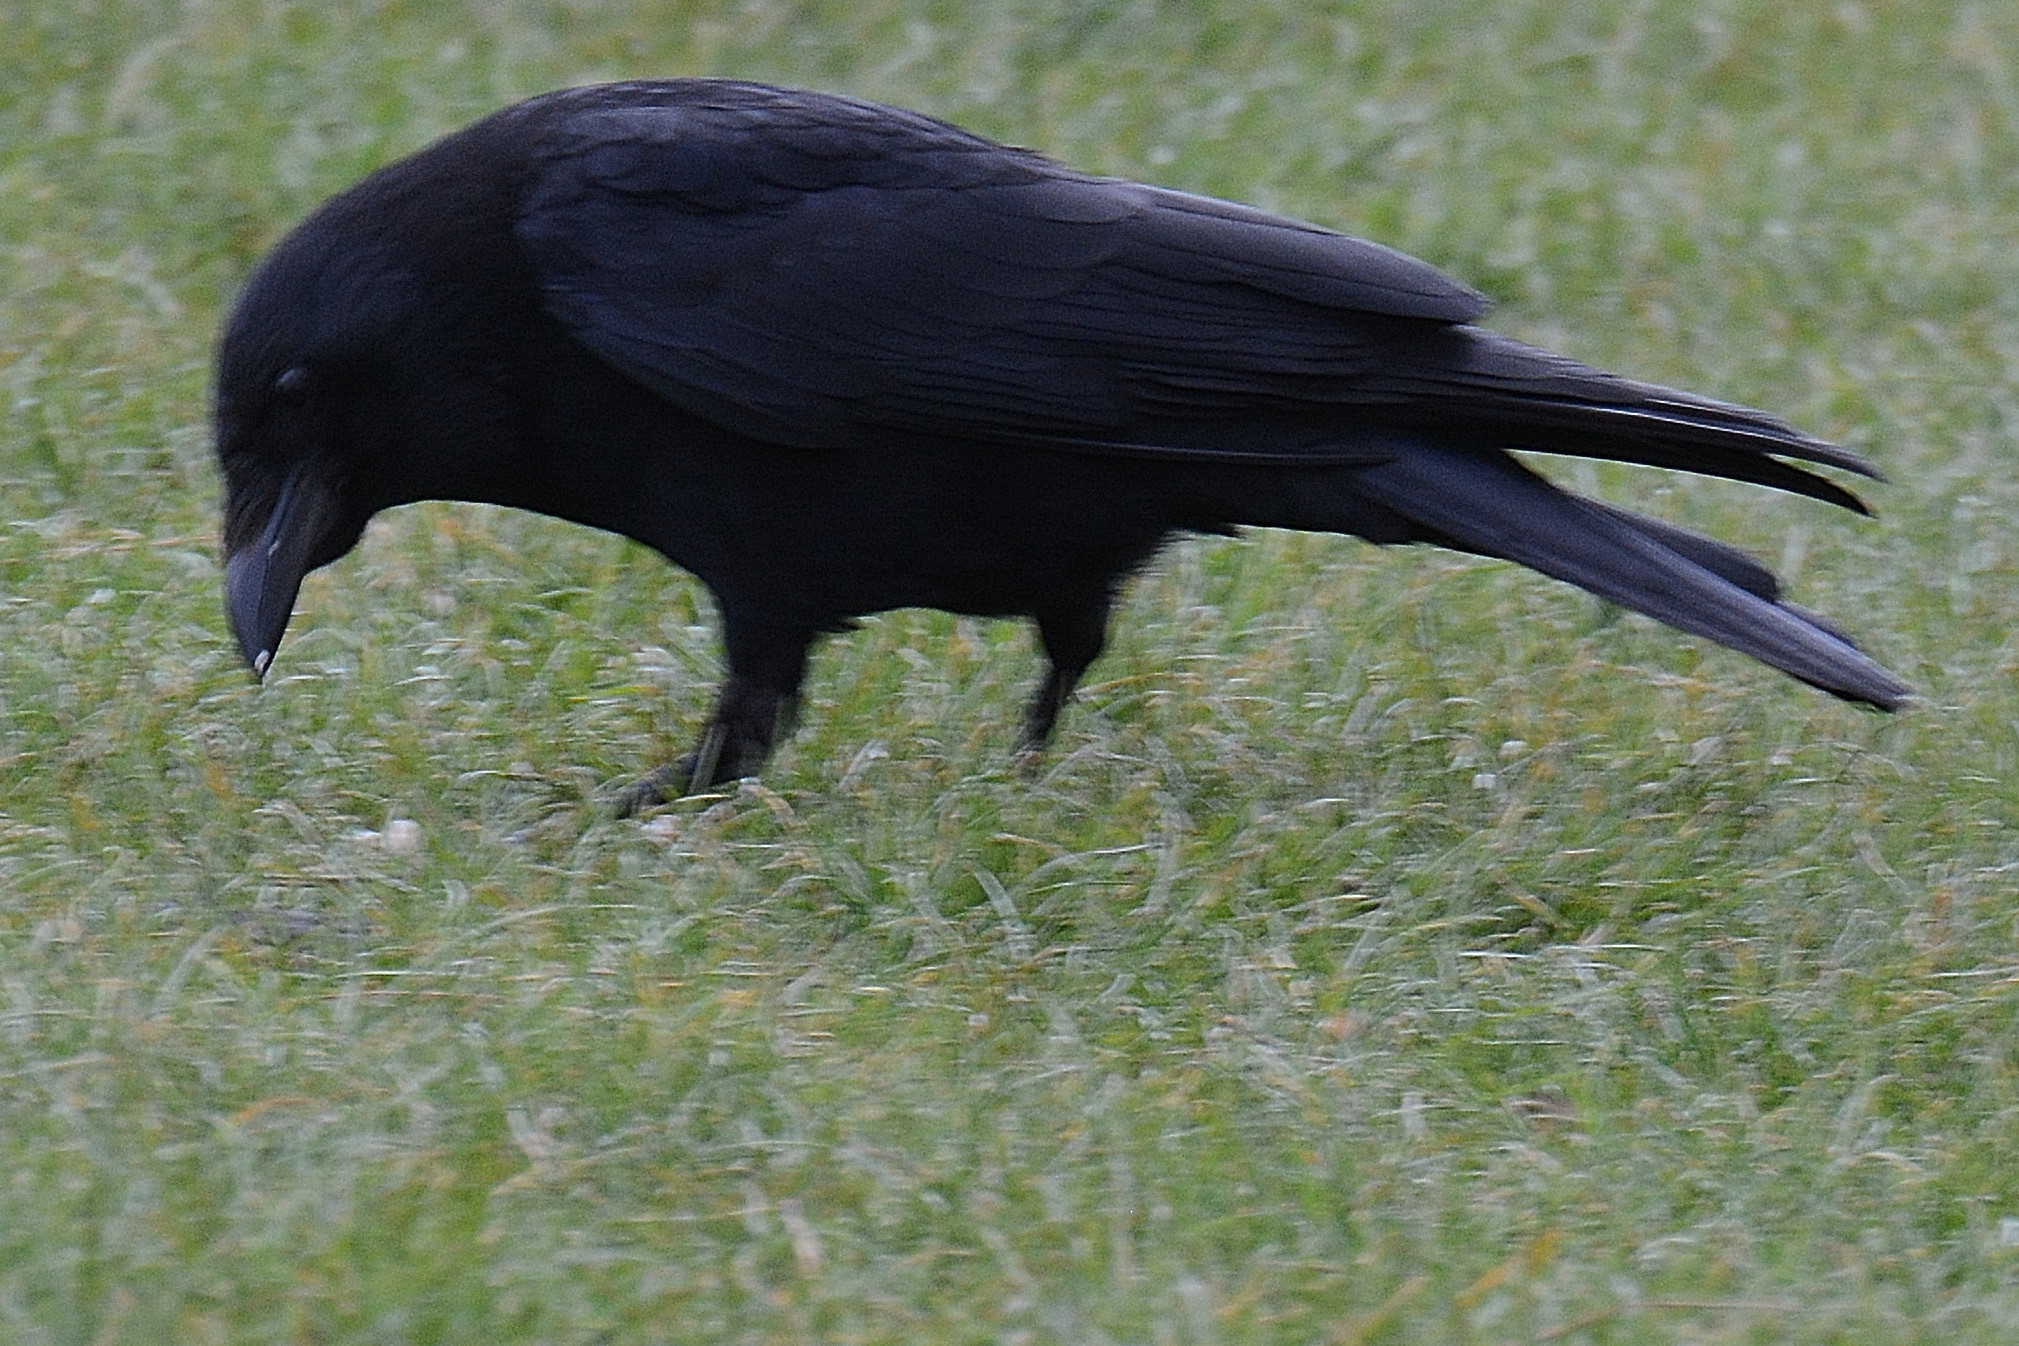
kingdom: Animalia
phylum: Chordata
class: Aves
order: Passeriformes
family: Corvidae
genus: Corvus
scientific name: Corvus corone
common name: Carrion crow
